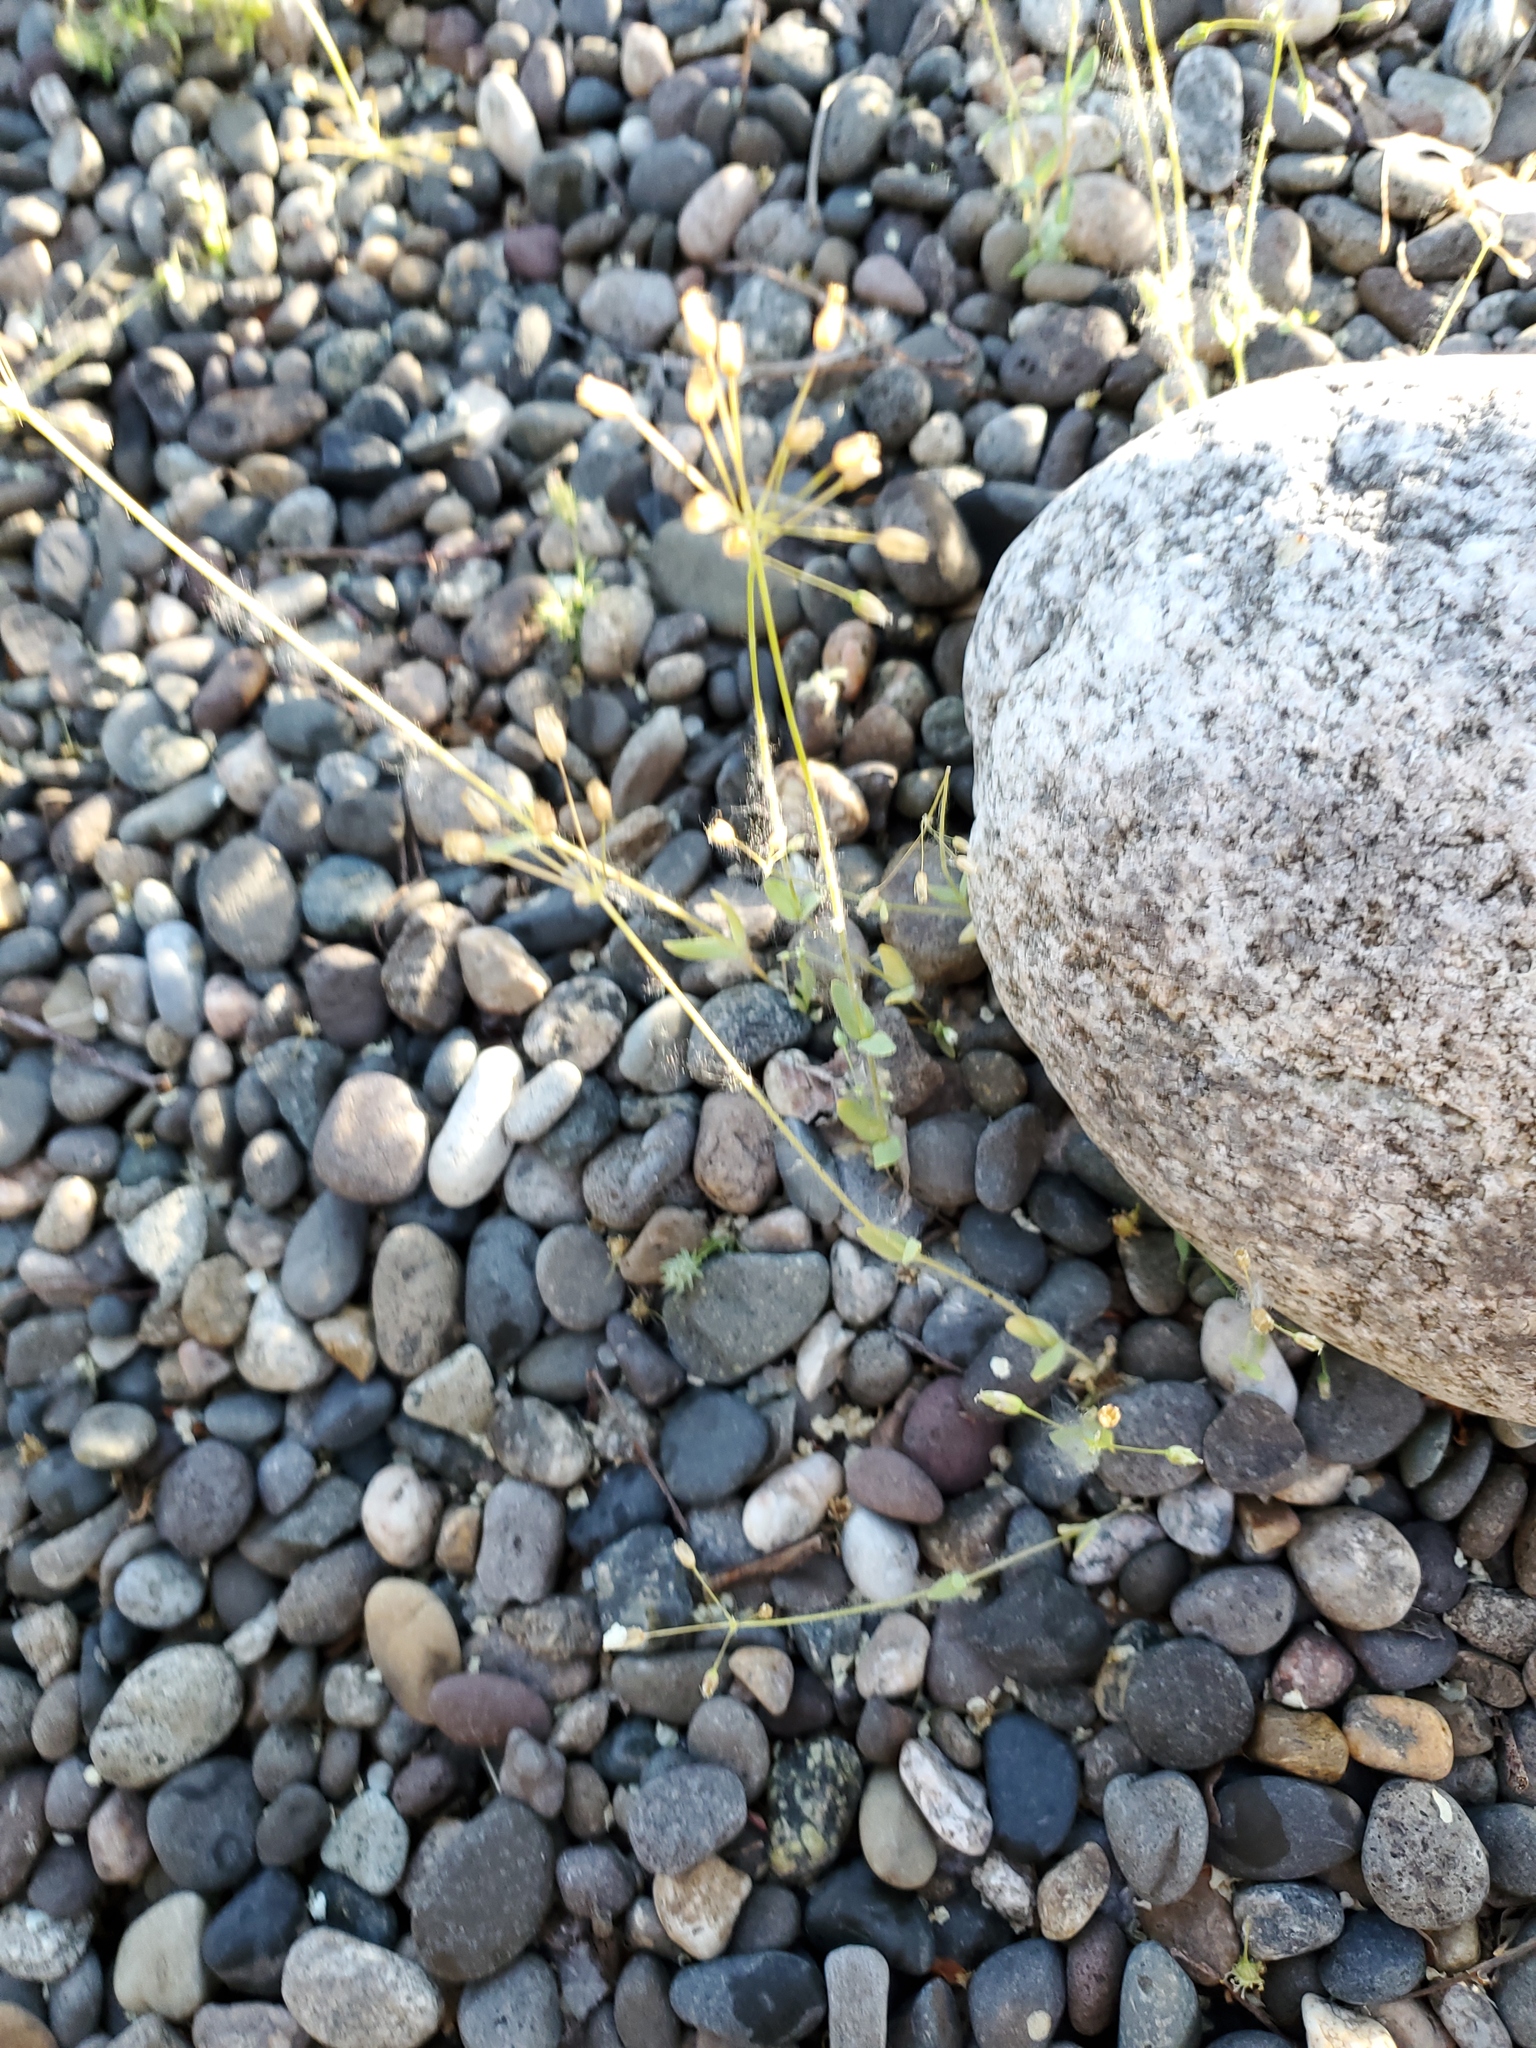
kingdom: Plantae
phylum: Tracheophyta
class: Magnoliopsida
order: Caryophyllales
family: Caryophyllaceae
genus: Holosteum
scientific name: Holosteum umbellatum
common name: Jagged chickweed
